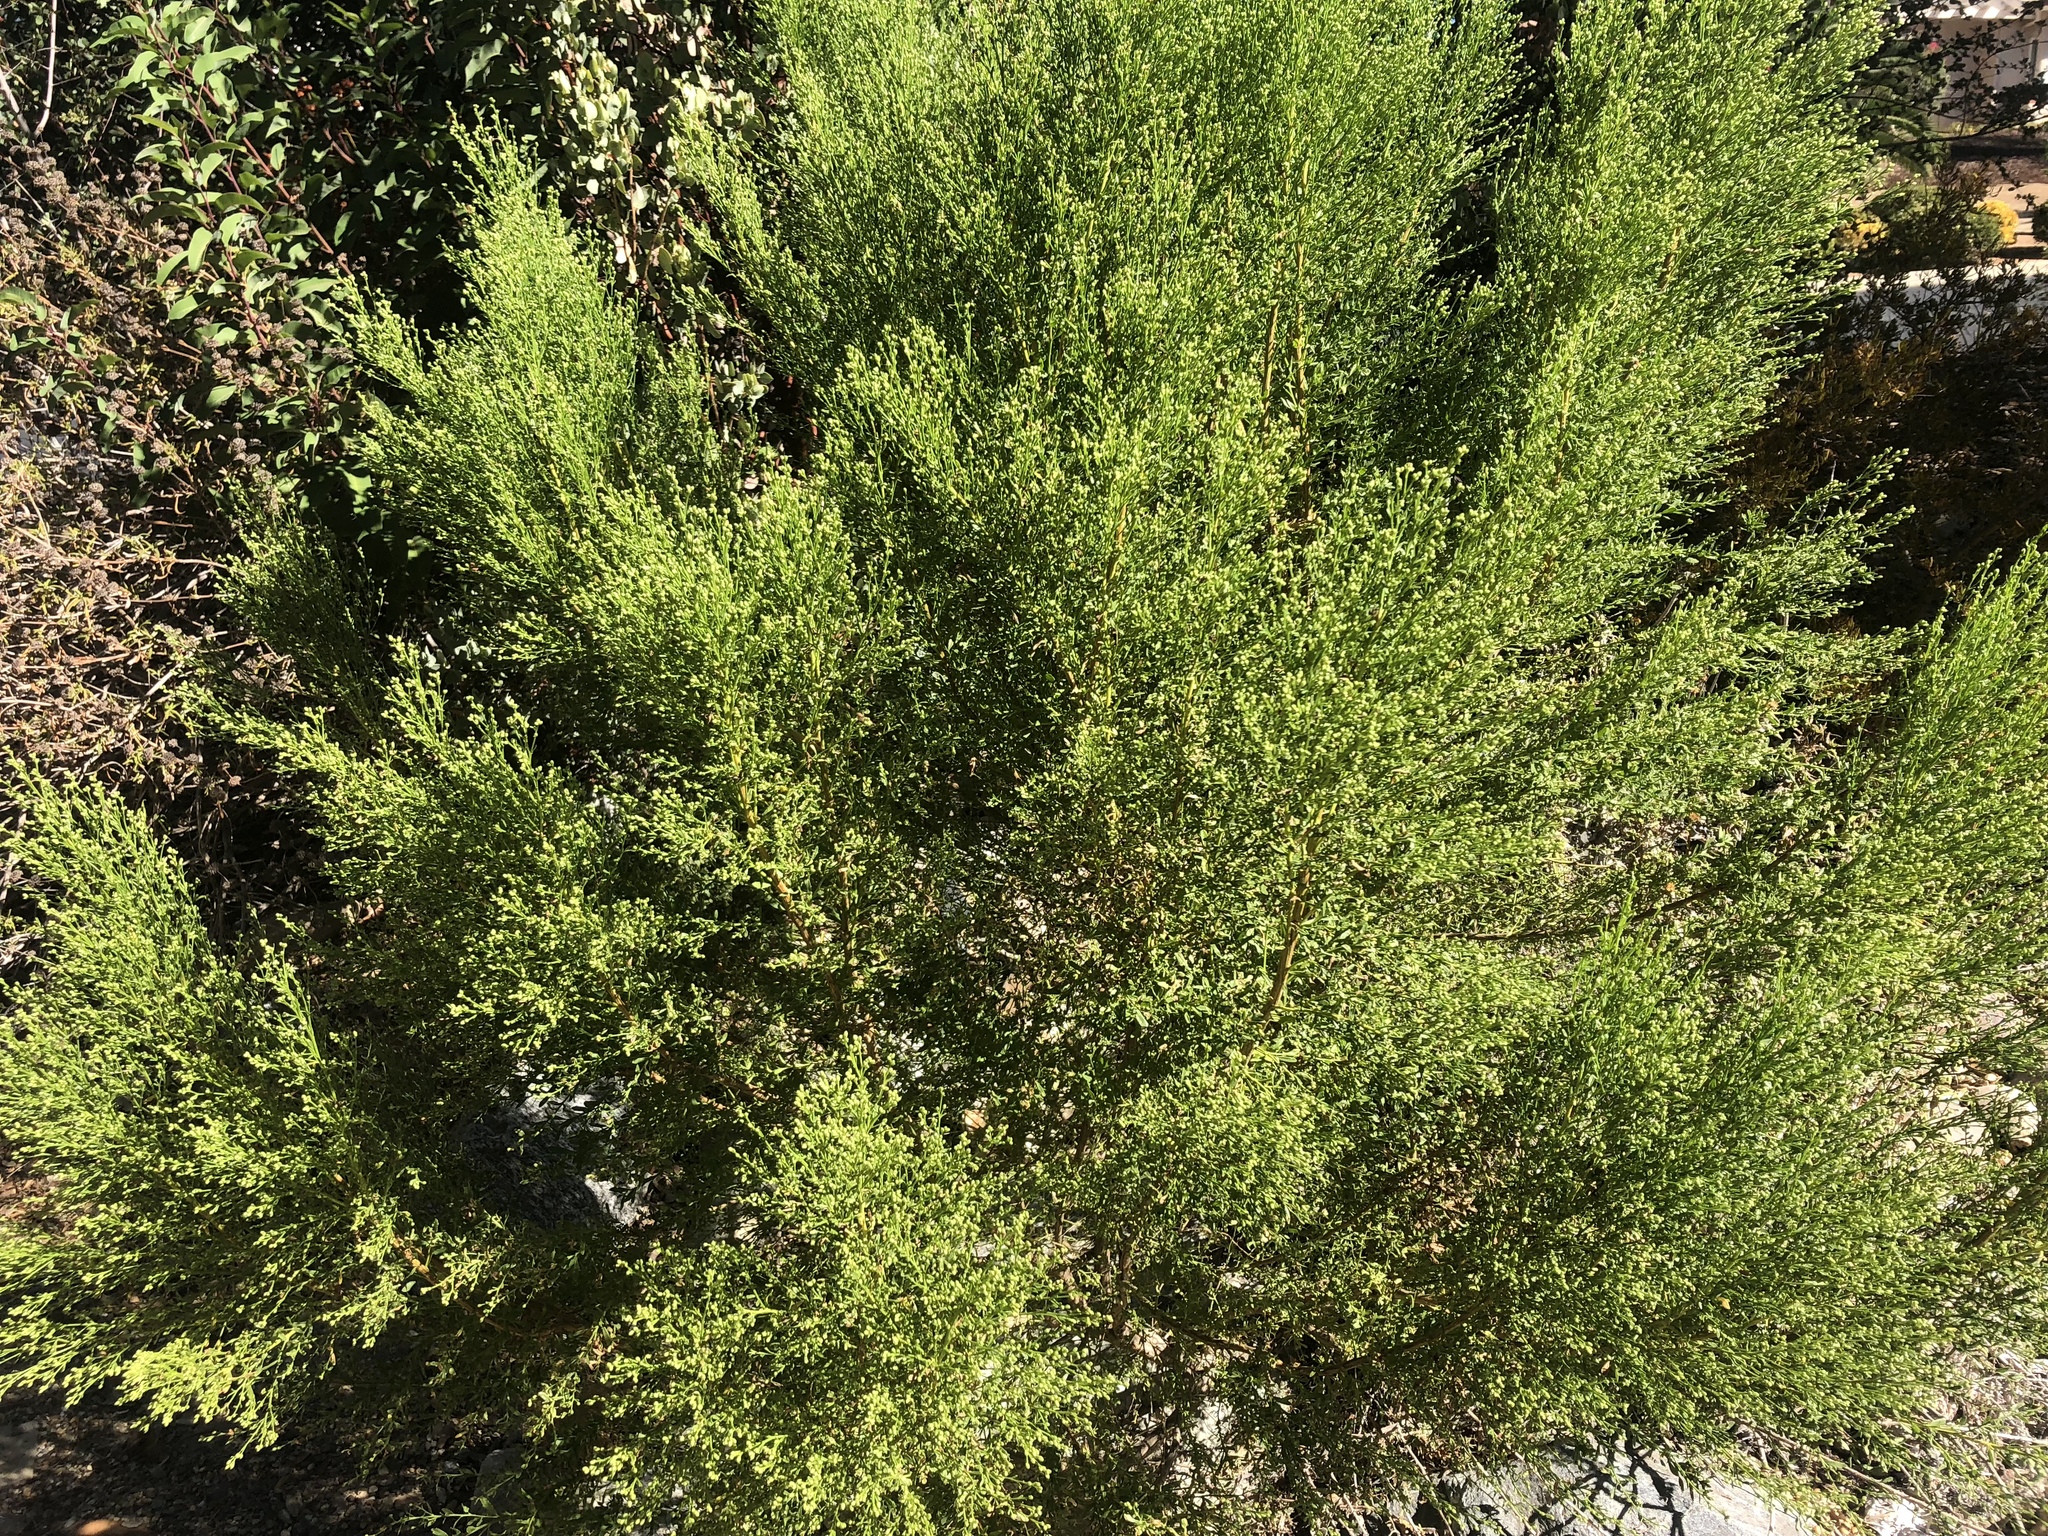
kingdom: Plantae
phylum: Tracheophyta
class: Magnoliopsida
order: Asterales
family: Asteraceae
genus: Baccharis
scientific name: Baccharis pilularis
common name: Coyotebrush
